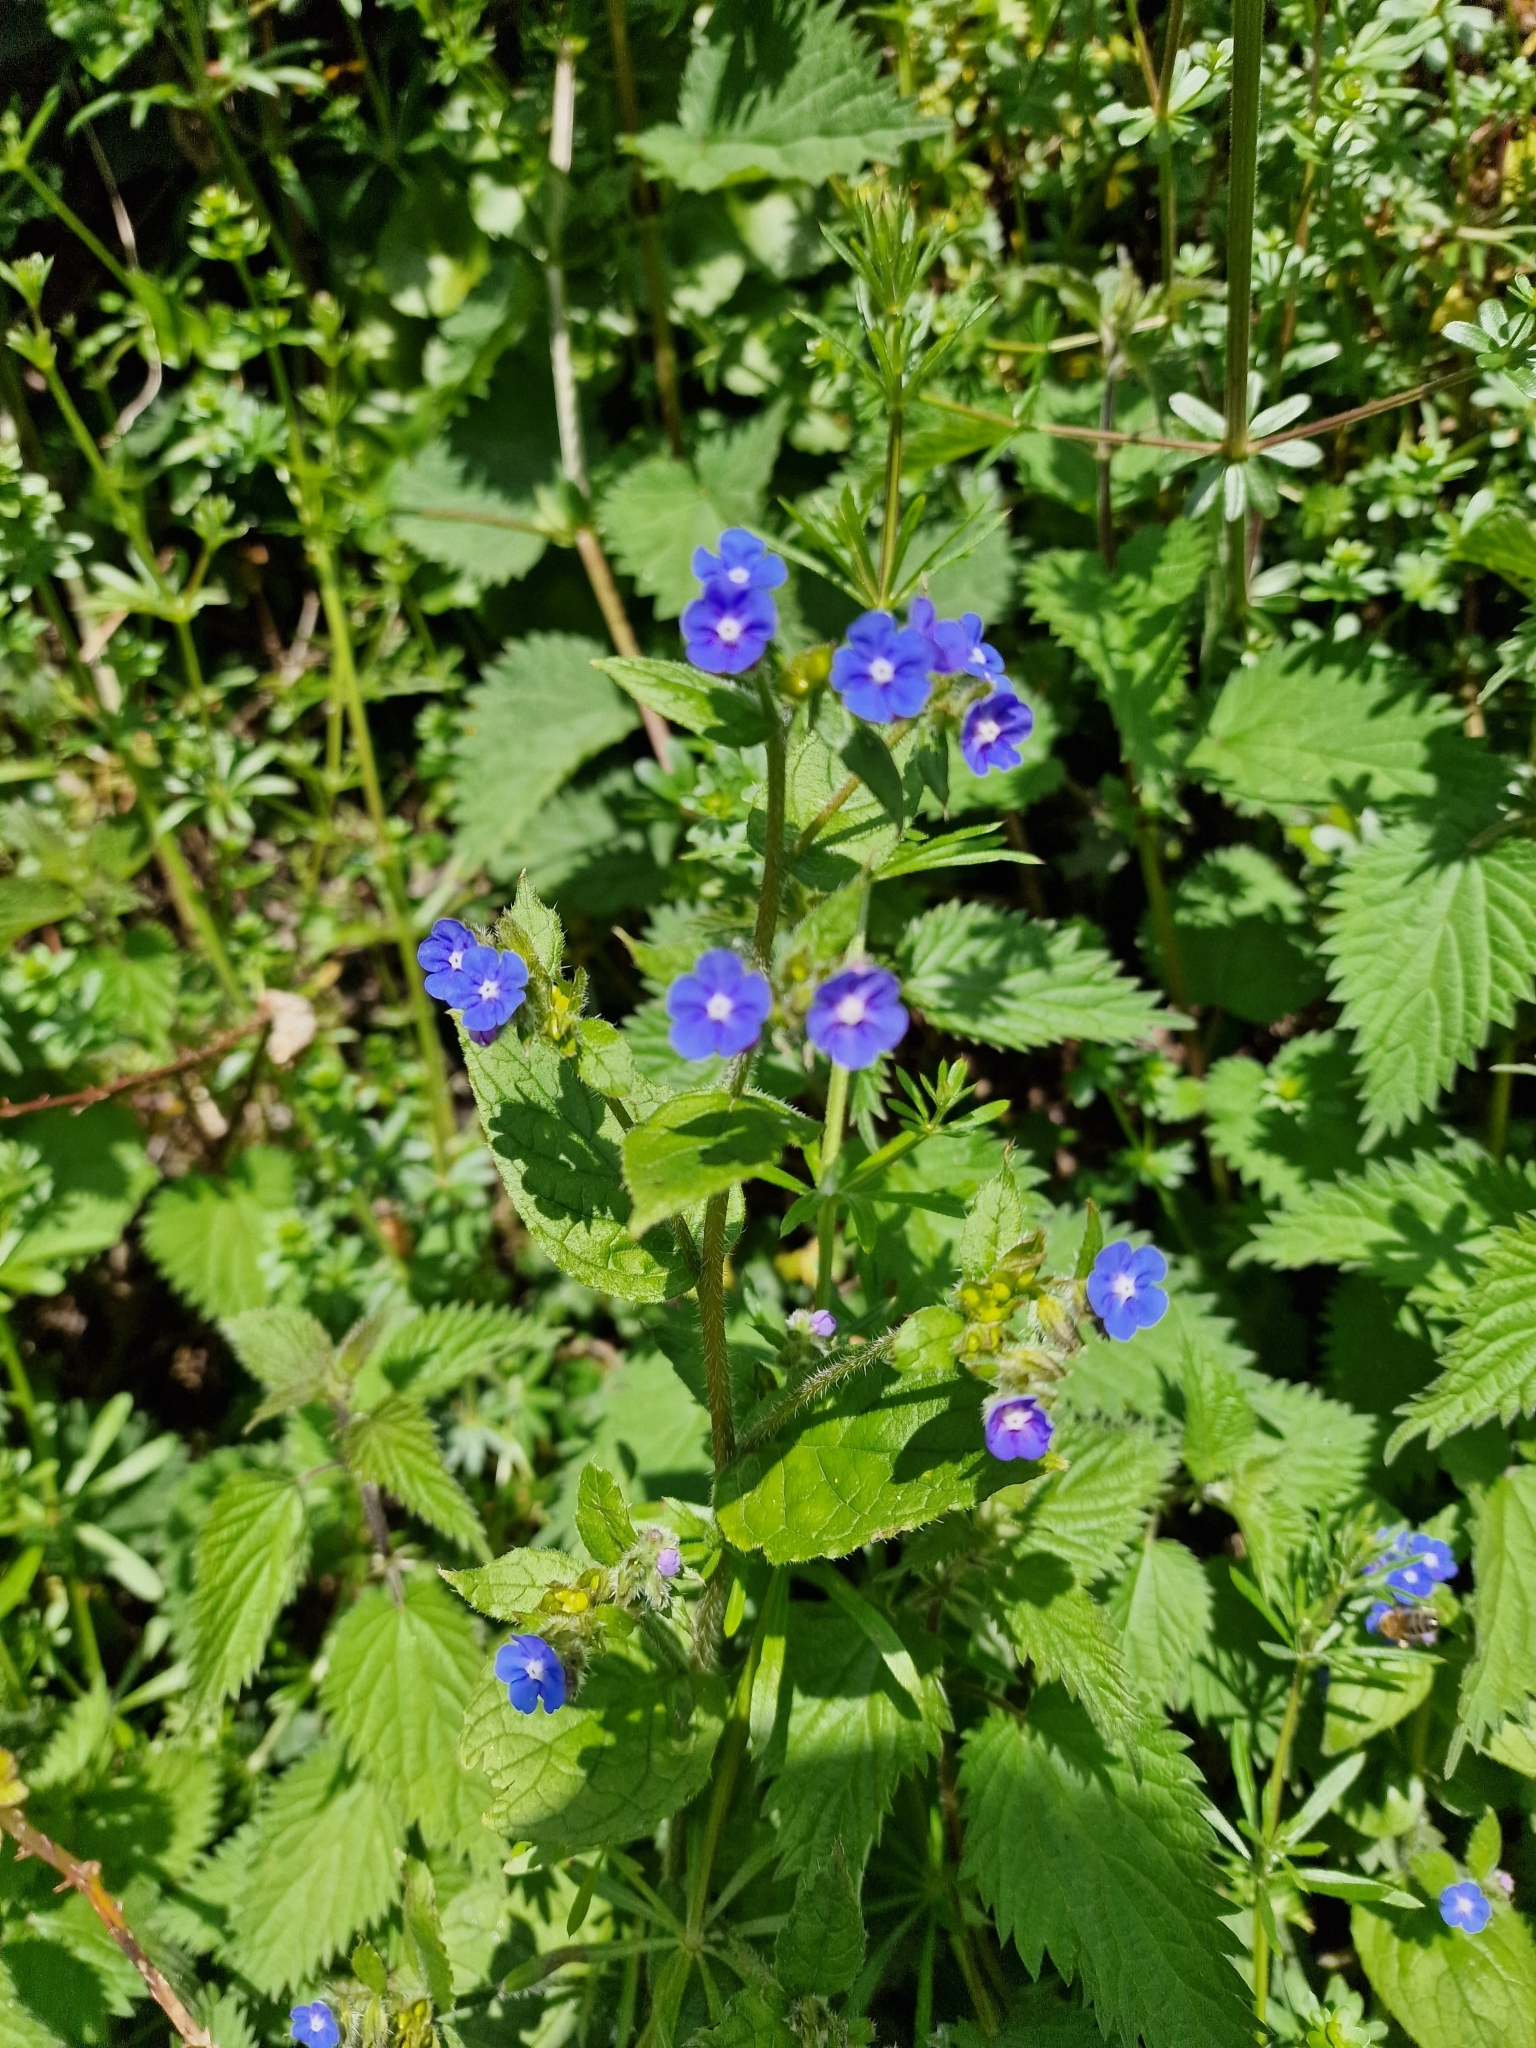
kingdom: Plantae
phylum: Tracheophyta
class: Magnoliopsida
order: Boraginales
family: Boraginaceae
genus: Pentaglottis
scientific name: Pentaglottis sempervirens
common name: Green alkanet
